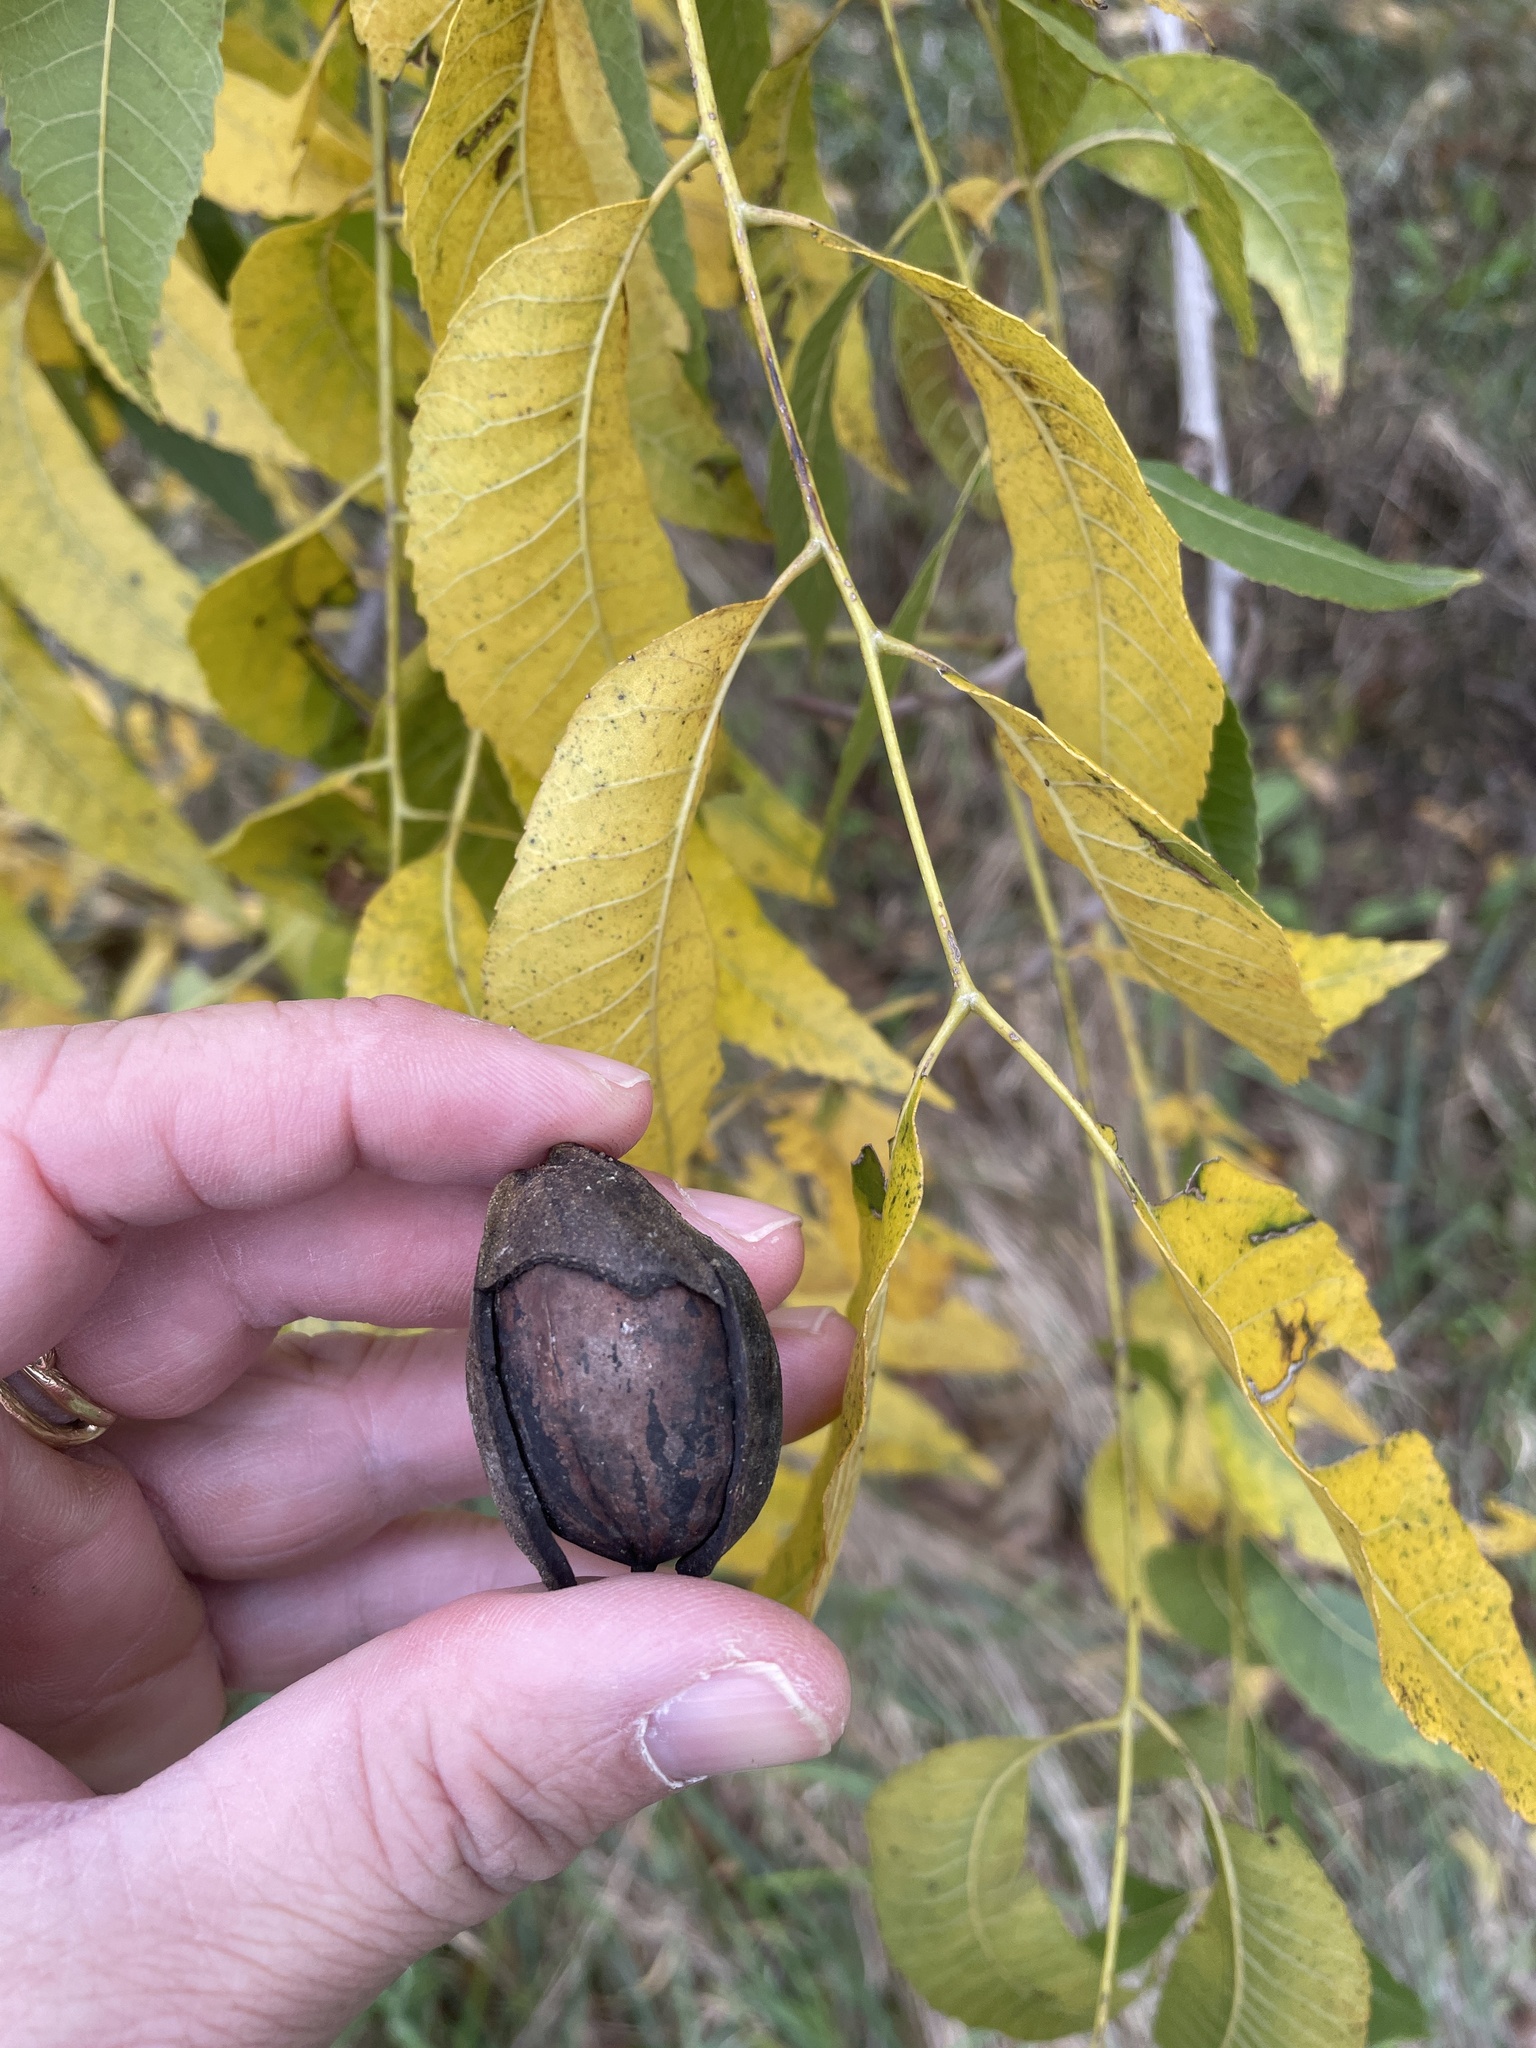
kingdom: Plantae
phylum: Tracheophyta
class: Magnoliopsida
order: Fagales
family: Juglandaceae
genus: Carya
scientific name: Carya illinoinensis
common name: Pecan
